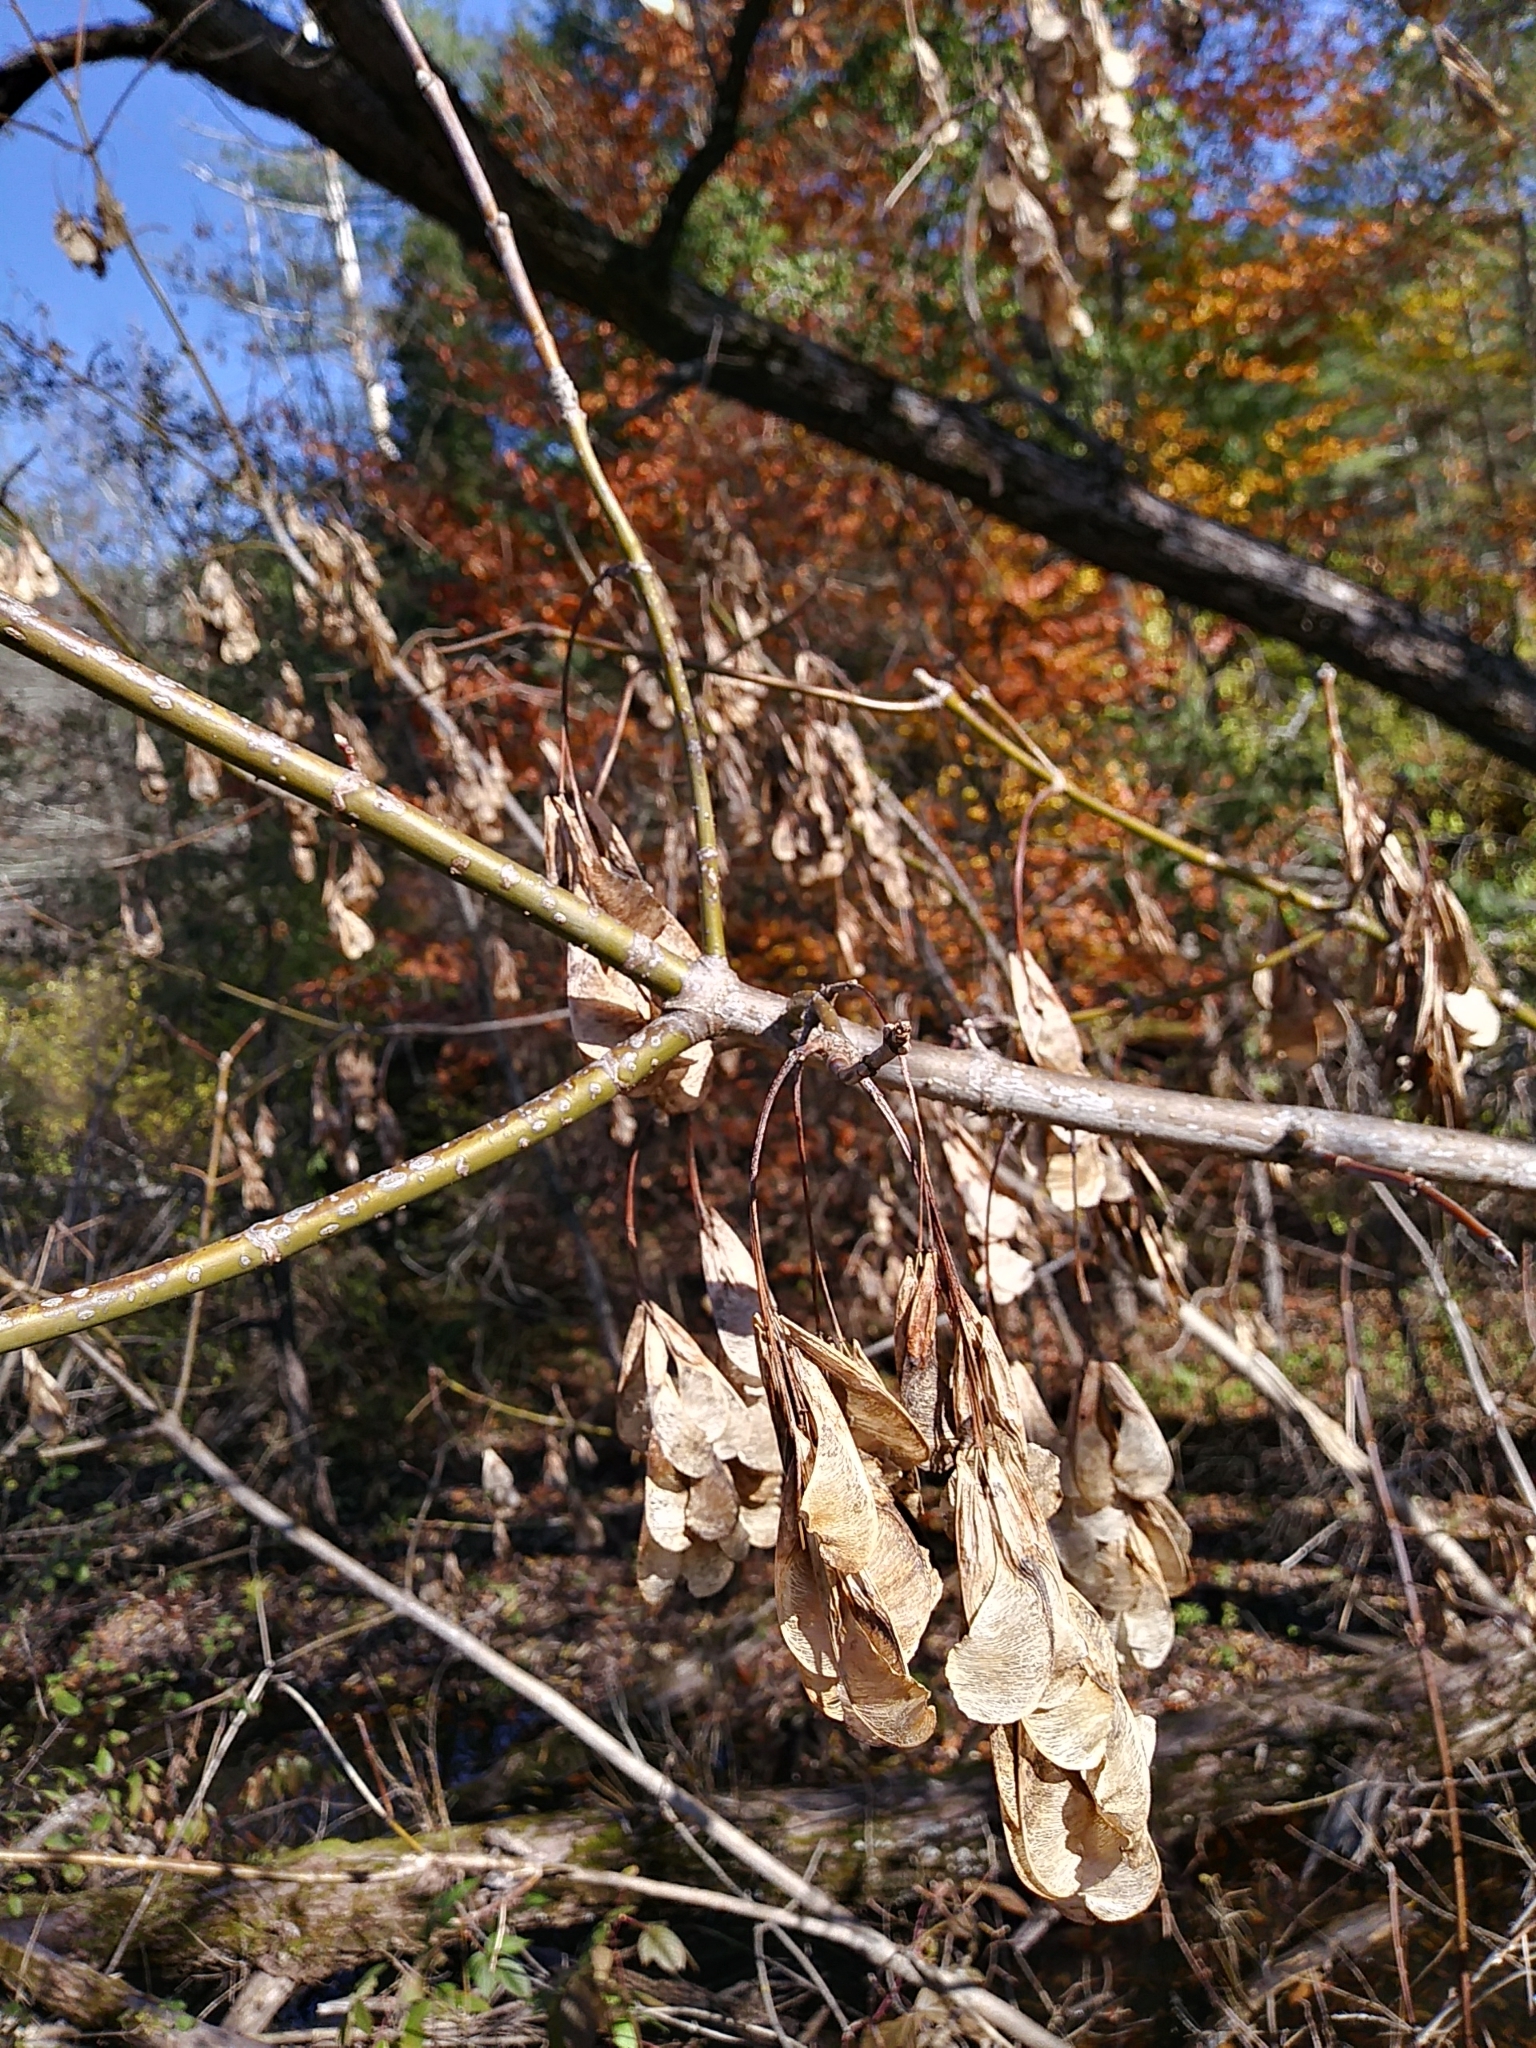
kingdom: Plantae
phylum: Tracheophyta
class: Magnoliopsida
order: Sapindales
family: Sapindaceae
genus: Acer
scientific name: Acer negundo
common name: Ashleaf maple
